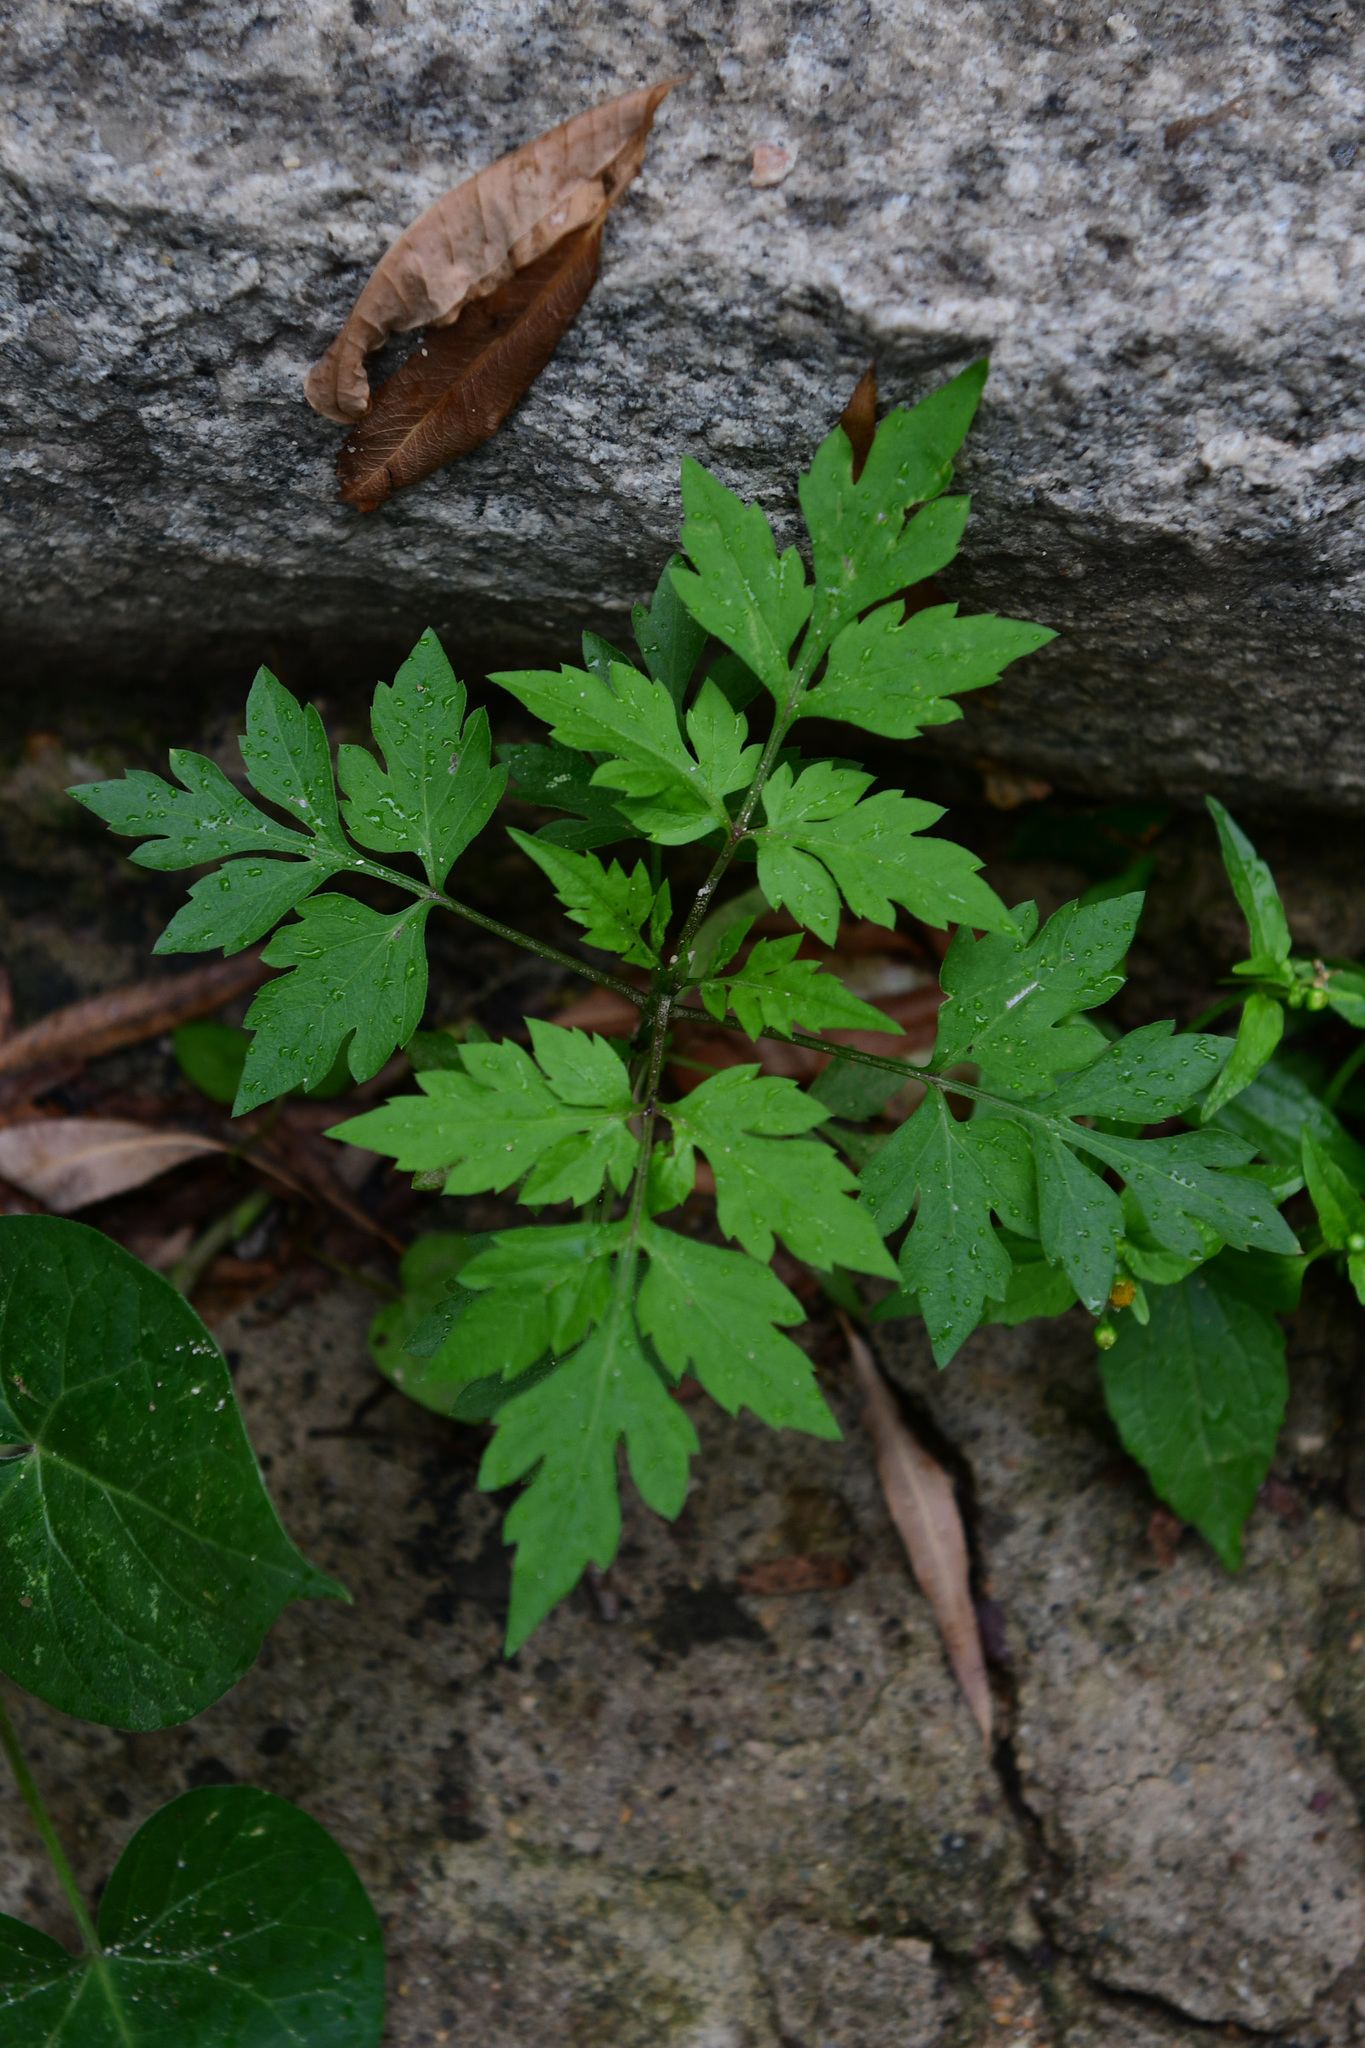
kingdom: Plantae
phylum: Tracheophyta
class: Magnoliopsida
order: Asterales
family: Asteraceae
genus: Bidens
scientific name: Bidens bipinnata
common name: Spanish-needles
